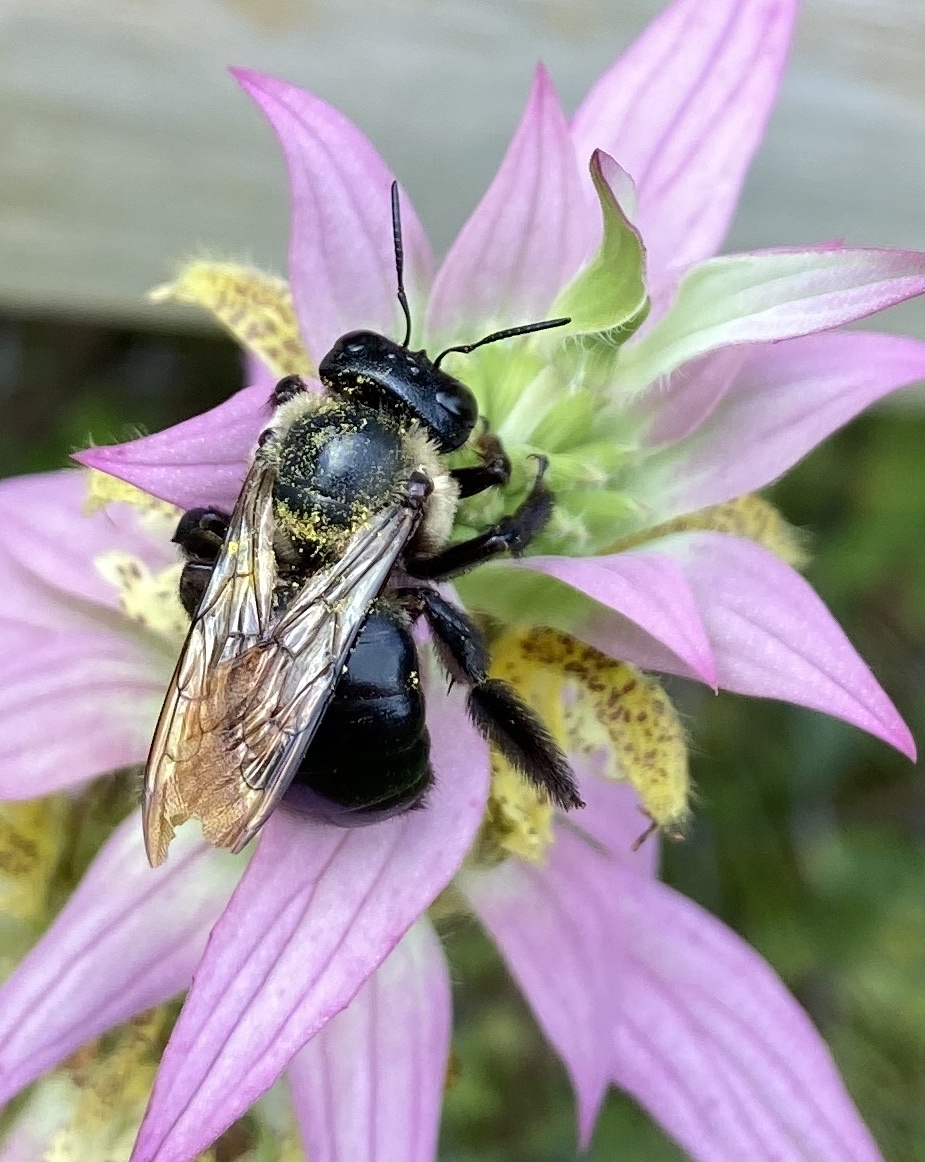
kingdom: Animalia
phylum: Arthropoda
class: Insecta
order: Hymenoptera
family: Apidae
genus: Xylocopa
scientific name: Xylocopa virginica
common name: Carpenter bee
